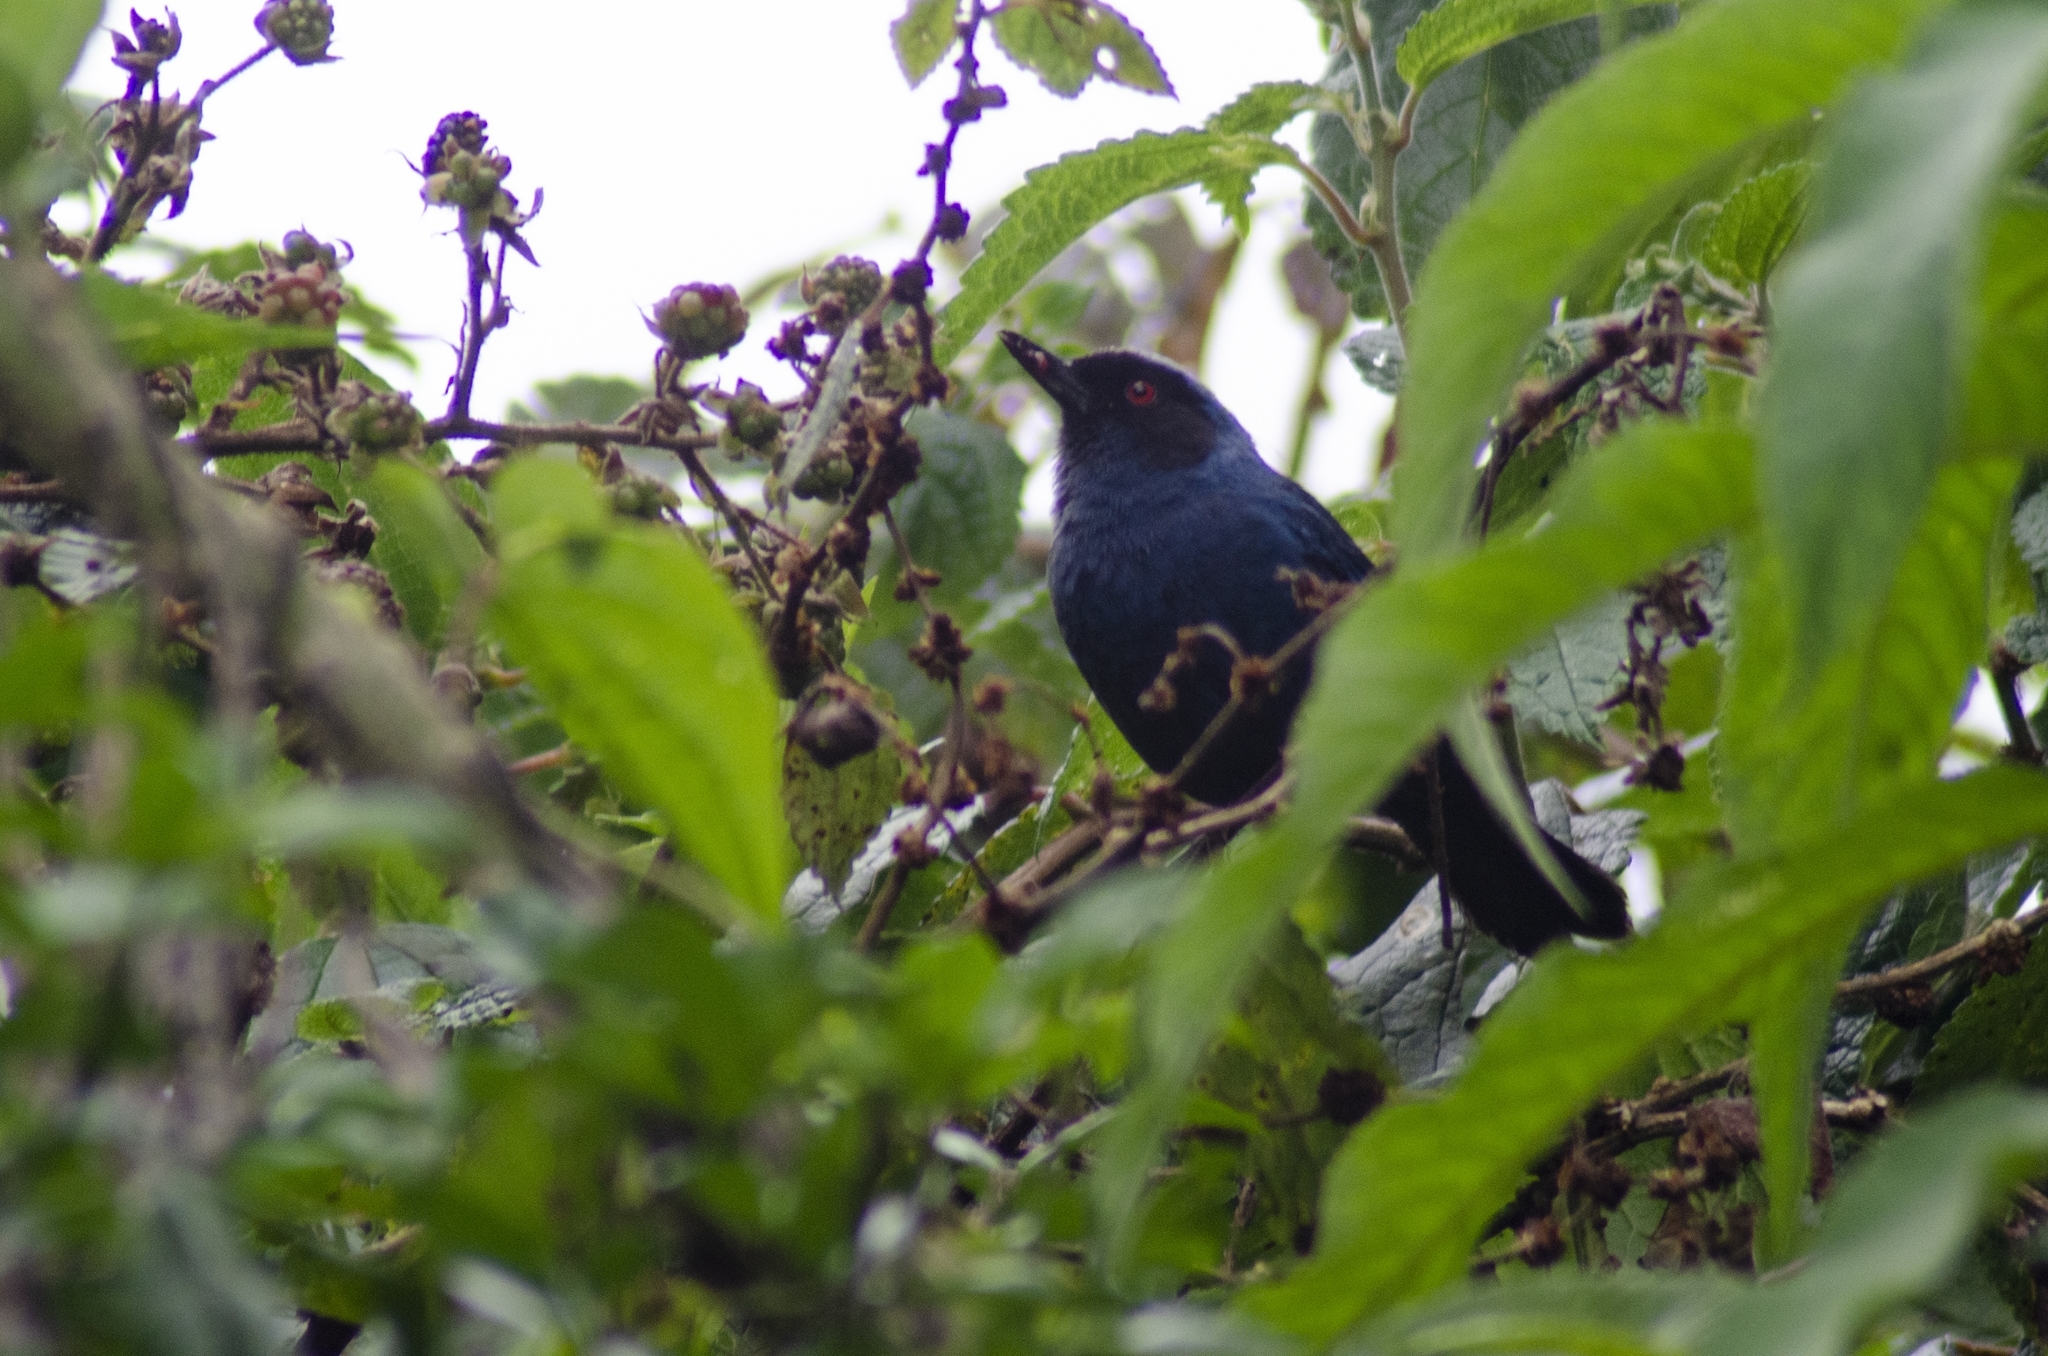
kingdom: Animalia
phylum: Chordata
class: Aves
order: Passeriformes
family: Thraupidae
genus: Diglossa
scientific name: Diglossa cyanea
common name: Masked flowerpiercer
